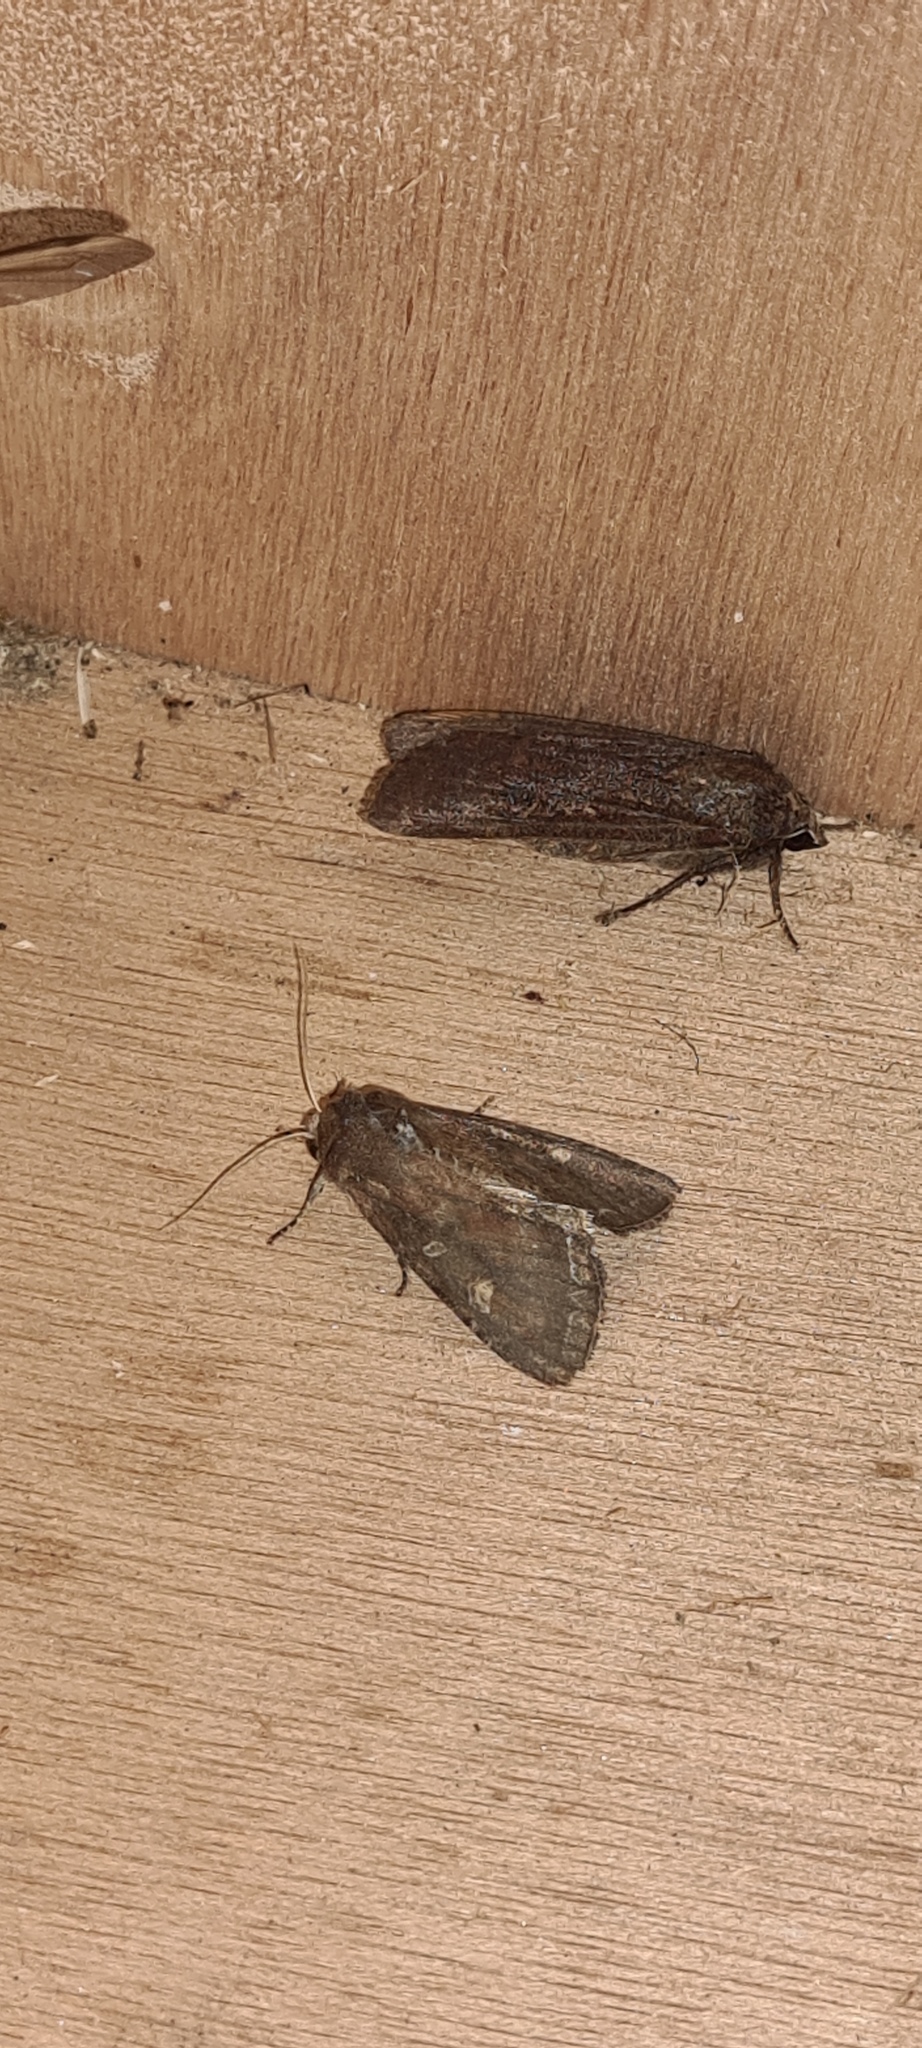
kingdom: Animalia
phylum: Arthropoda
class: Insecta
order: Lepidoptera
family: Noctuidae
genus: Noctua
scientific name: Noctua pronuba
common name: Large yellow underwing
